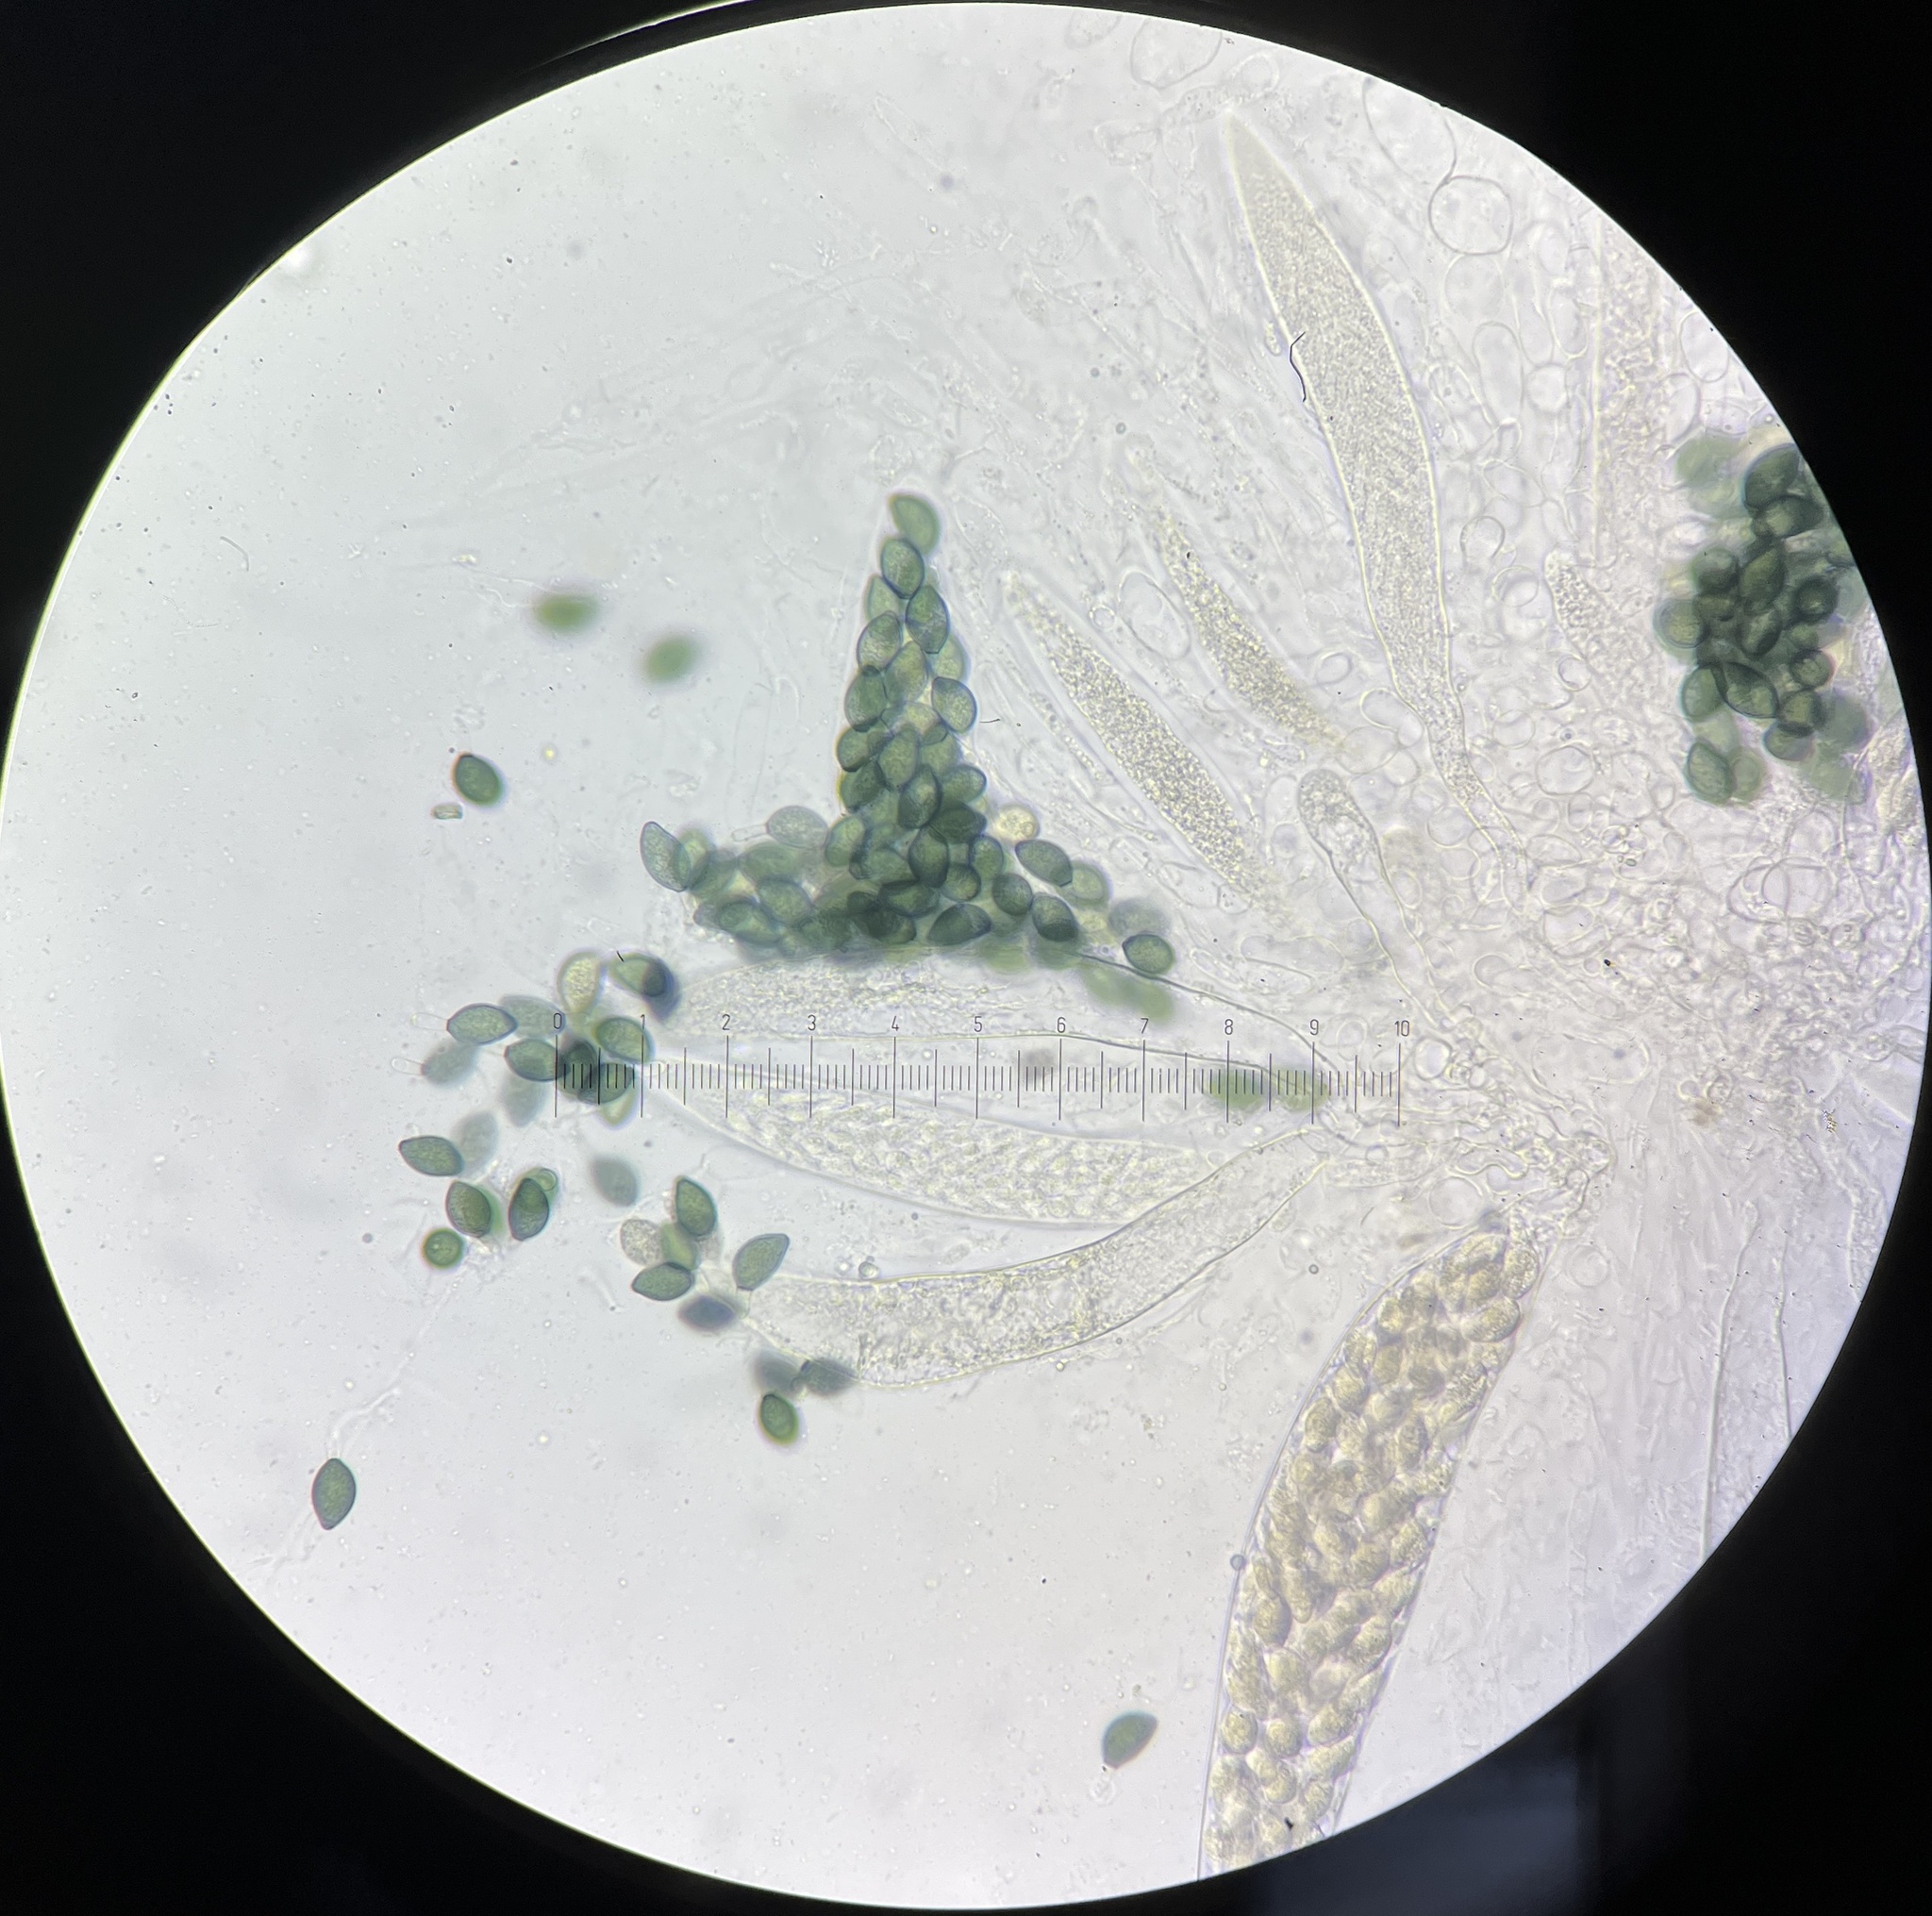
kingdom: Fungi
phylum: Ascomycota
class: Sordariomycetes
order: Sordariales
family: Podosporaceae
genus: Podospora
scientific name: Podospora collapsa
